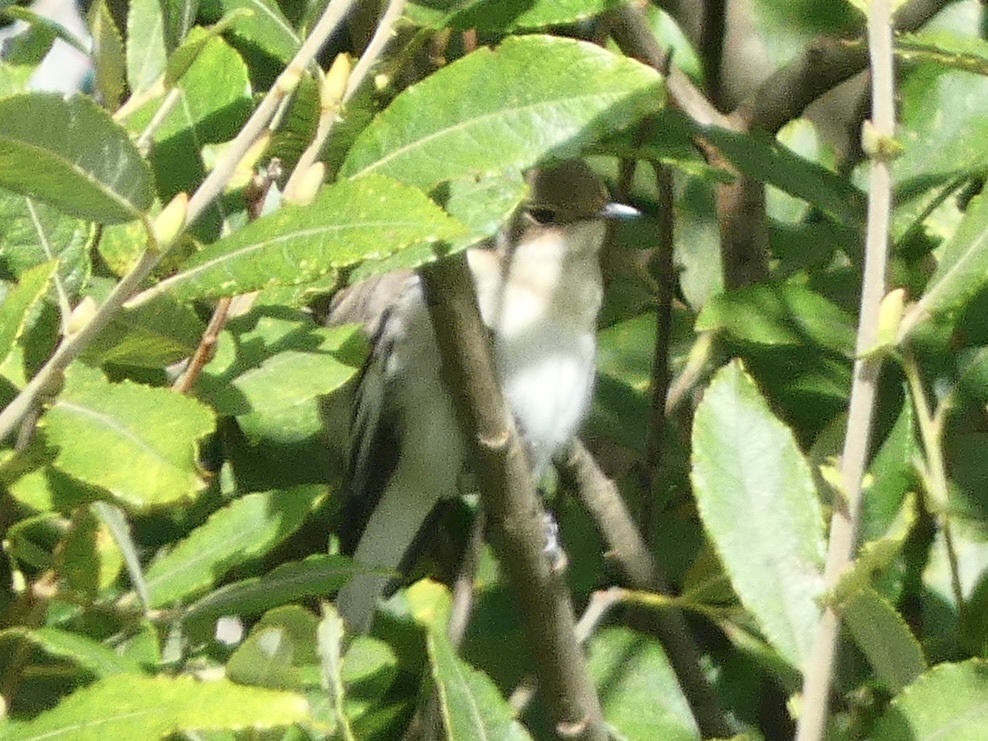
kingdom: Animalia
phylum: Chordata
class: Aves
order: Passeriformes
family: Muscicapidae
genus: Ficedula
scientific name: Ficedula hypoleuca
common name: European pied flycatcher
